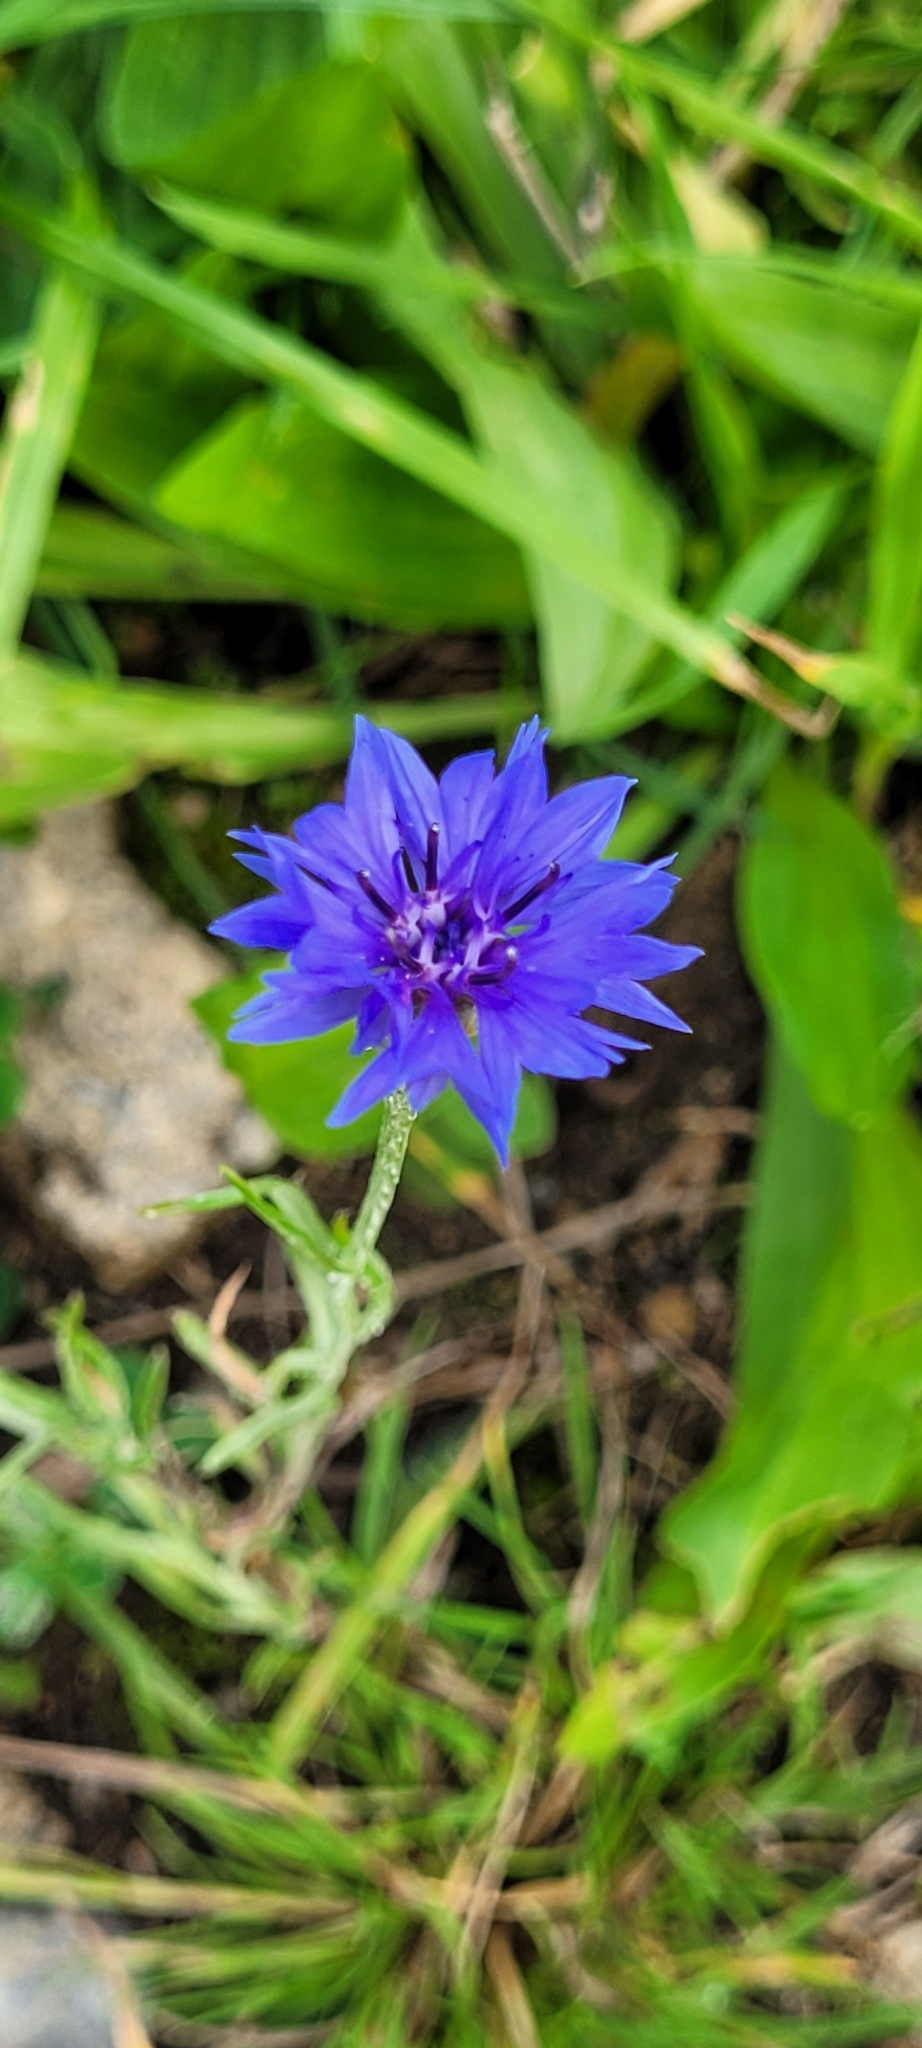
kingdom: Plantae
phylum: Tracheophyta
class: Magnoliopsida
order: Asterales
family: Asteraceae
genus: Centaurea
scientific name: Centaurea cyanus
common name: Cornflower
